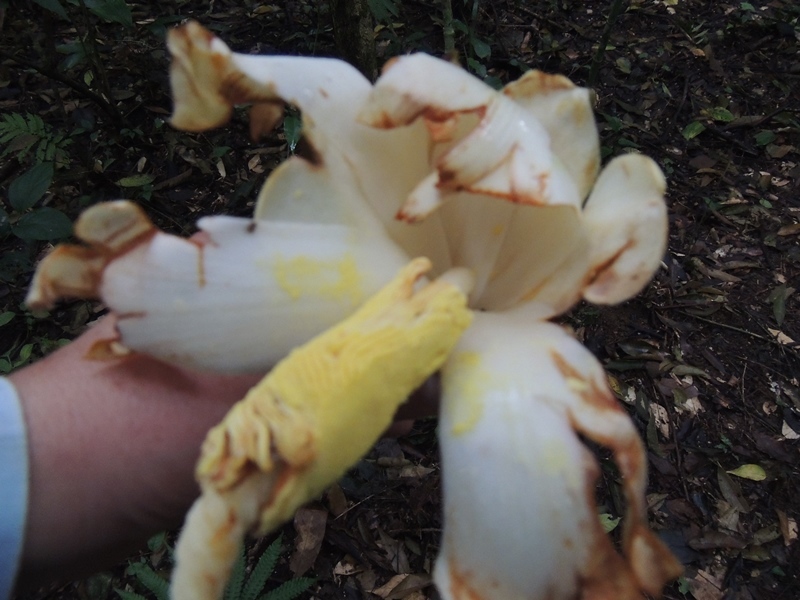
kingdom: Plantae
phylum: Tracheophyta
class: Magnoliopsida
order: Malvales
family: Malvaceae
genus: Ochroma
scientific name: Ochroma pyramidale
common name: Balsa
